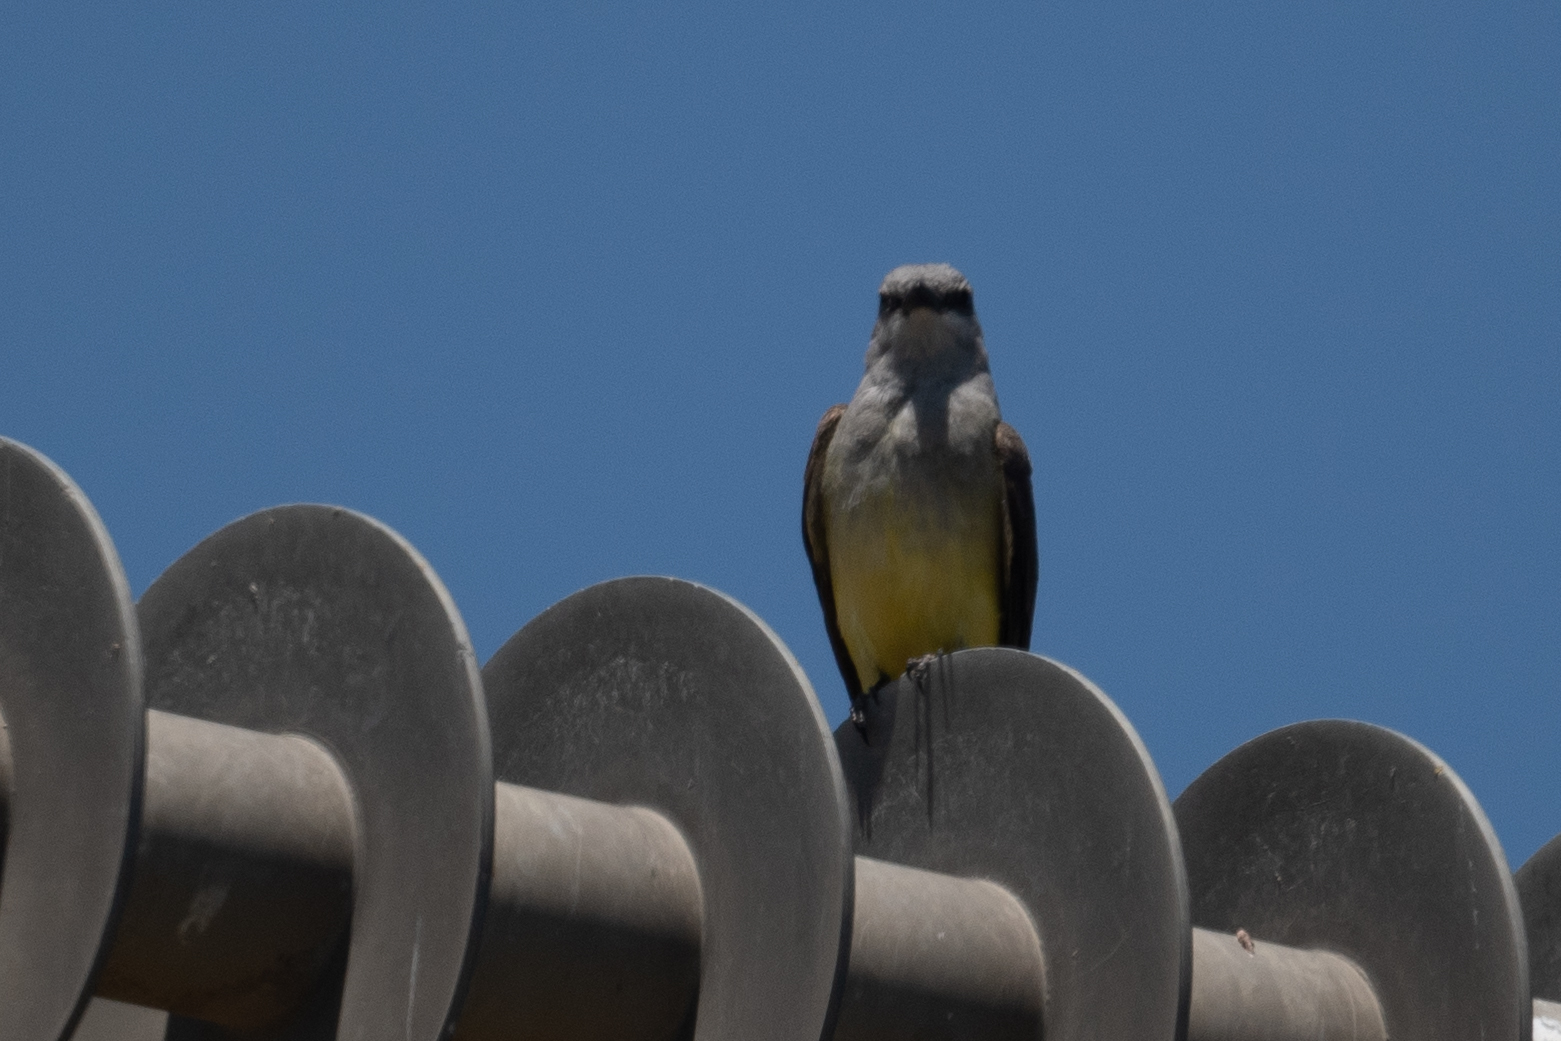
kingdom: Animalia
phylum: Chordata
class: Aves
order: Passeriformes
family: Tyrannidae
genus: Tyrannus
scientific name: Tyrannus verticalis
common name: Western kingbird
